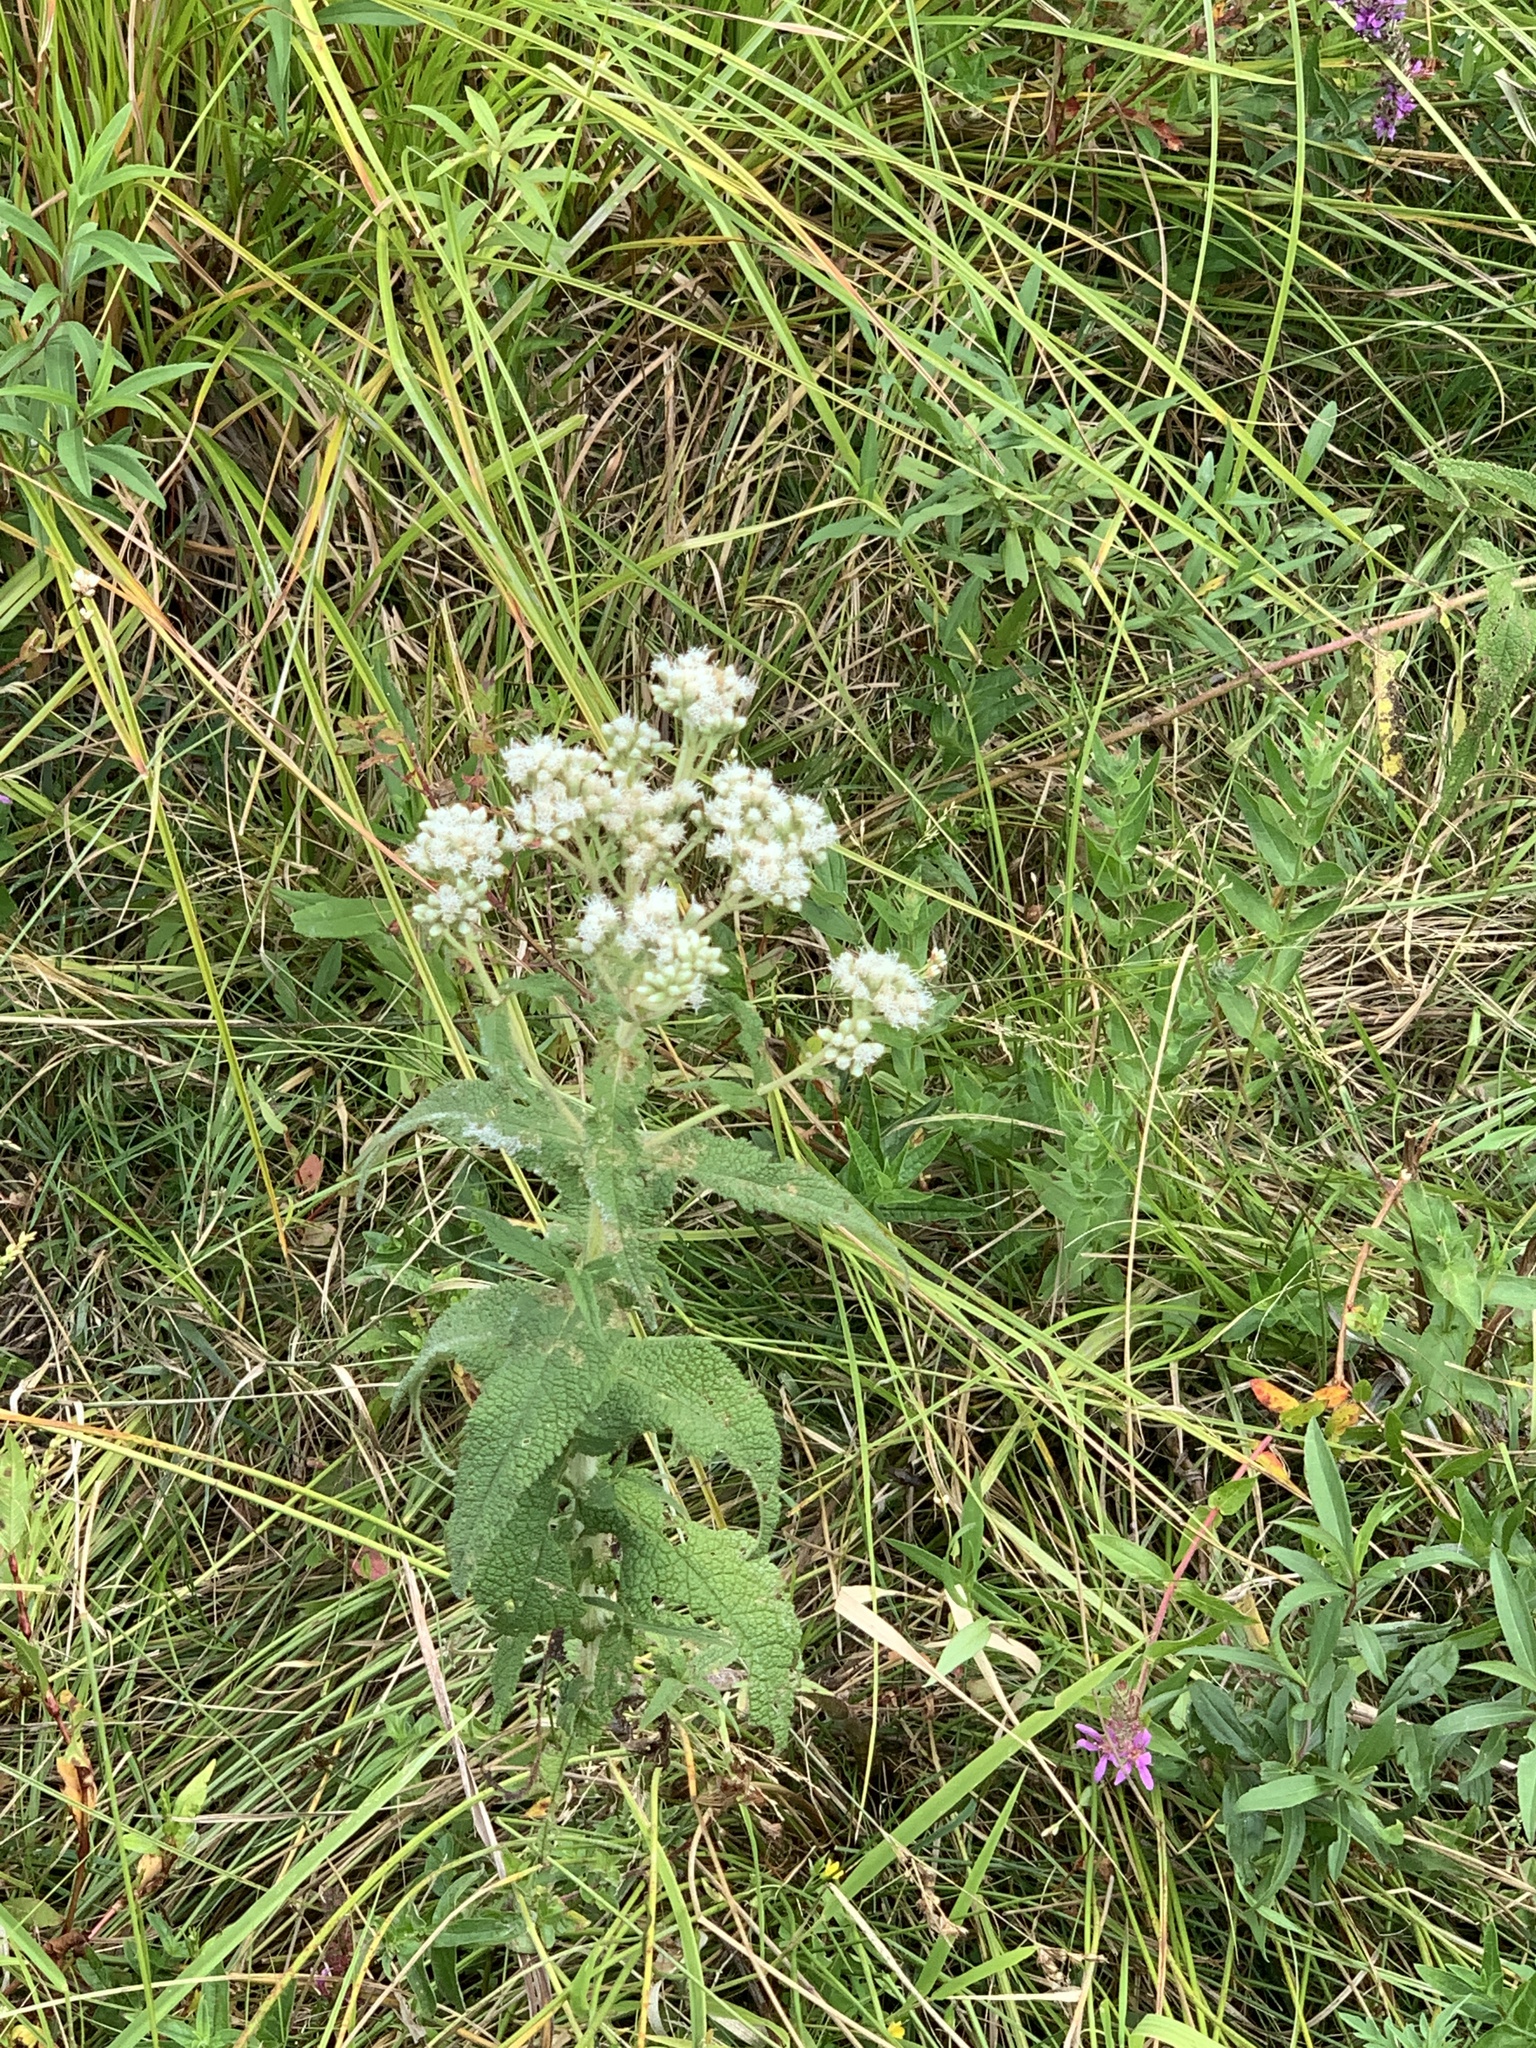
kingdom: Plantae
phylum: Tracheophyta
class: Magnoliopsida
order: Asterales
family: Asteraceae
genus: Eupatorium
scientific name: Eupatorium perfoliatum
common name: Boneset
